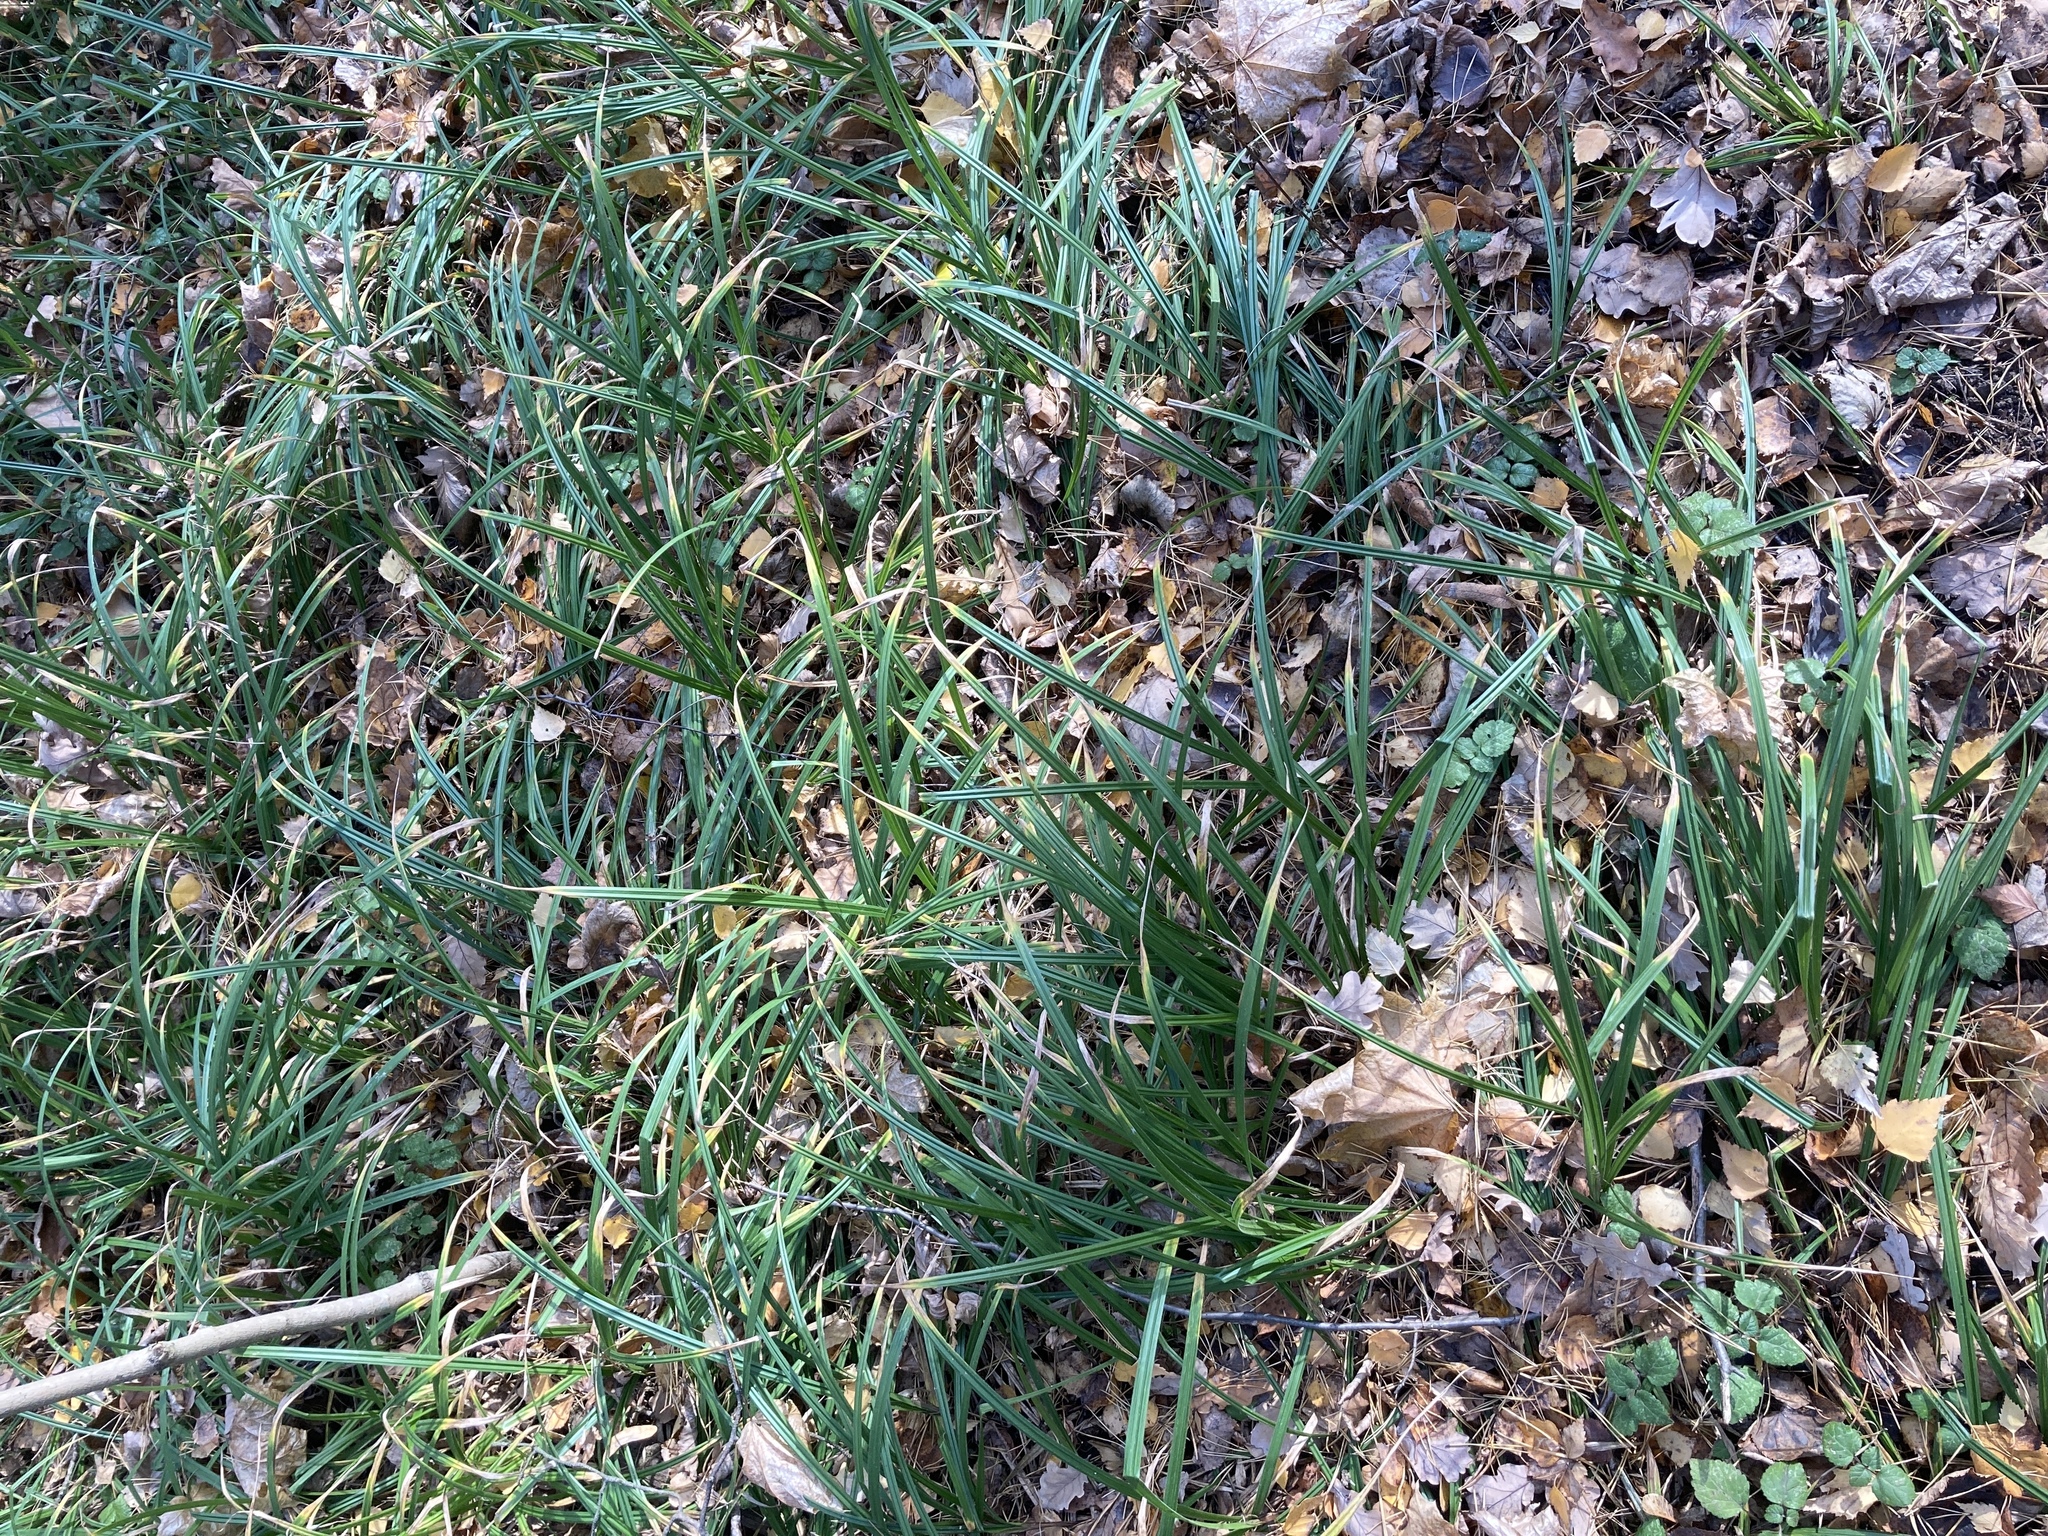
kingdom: Plantae
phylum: Tracheophyta
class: Liliopsida
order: Poales
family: Cyperaceae
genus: Carex
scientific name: Carex pilosa
